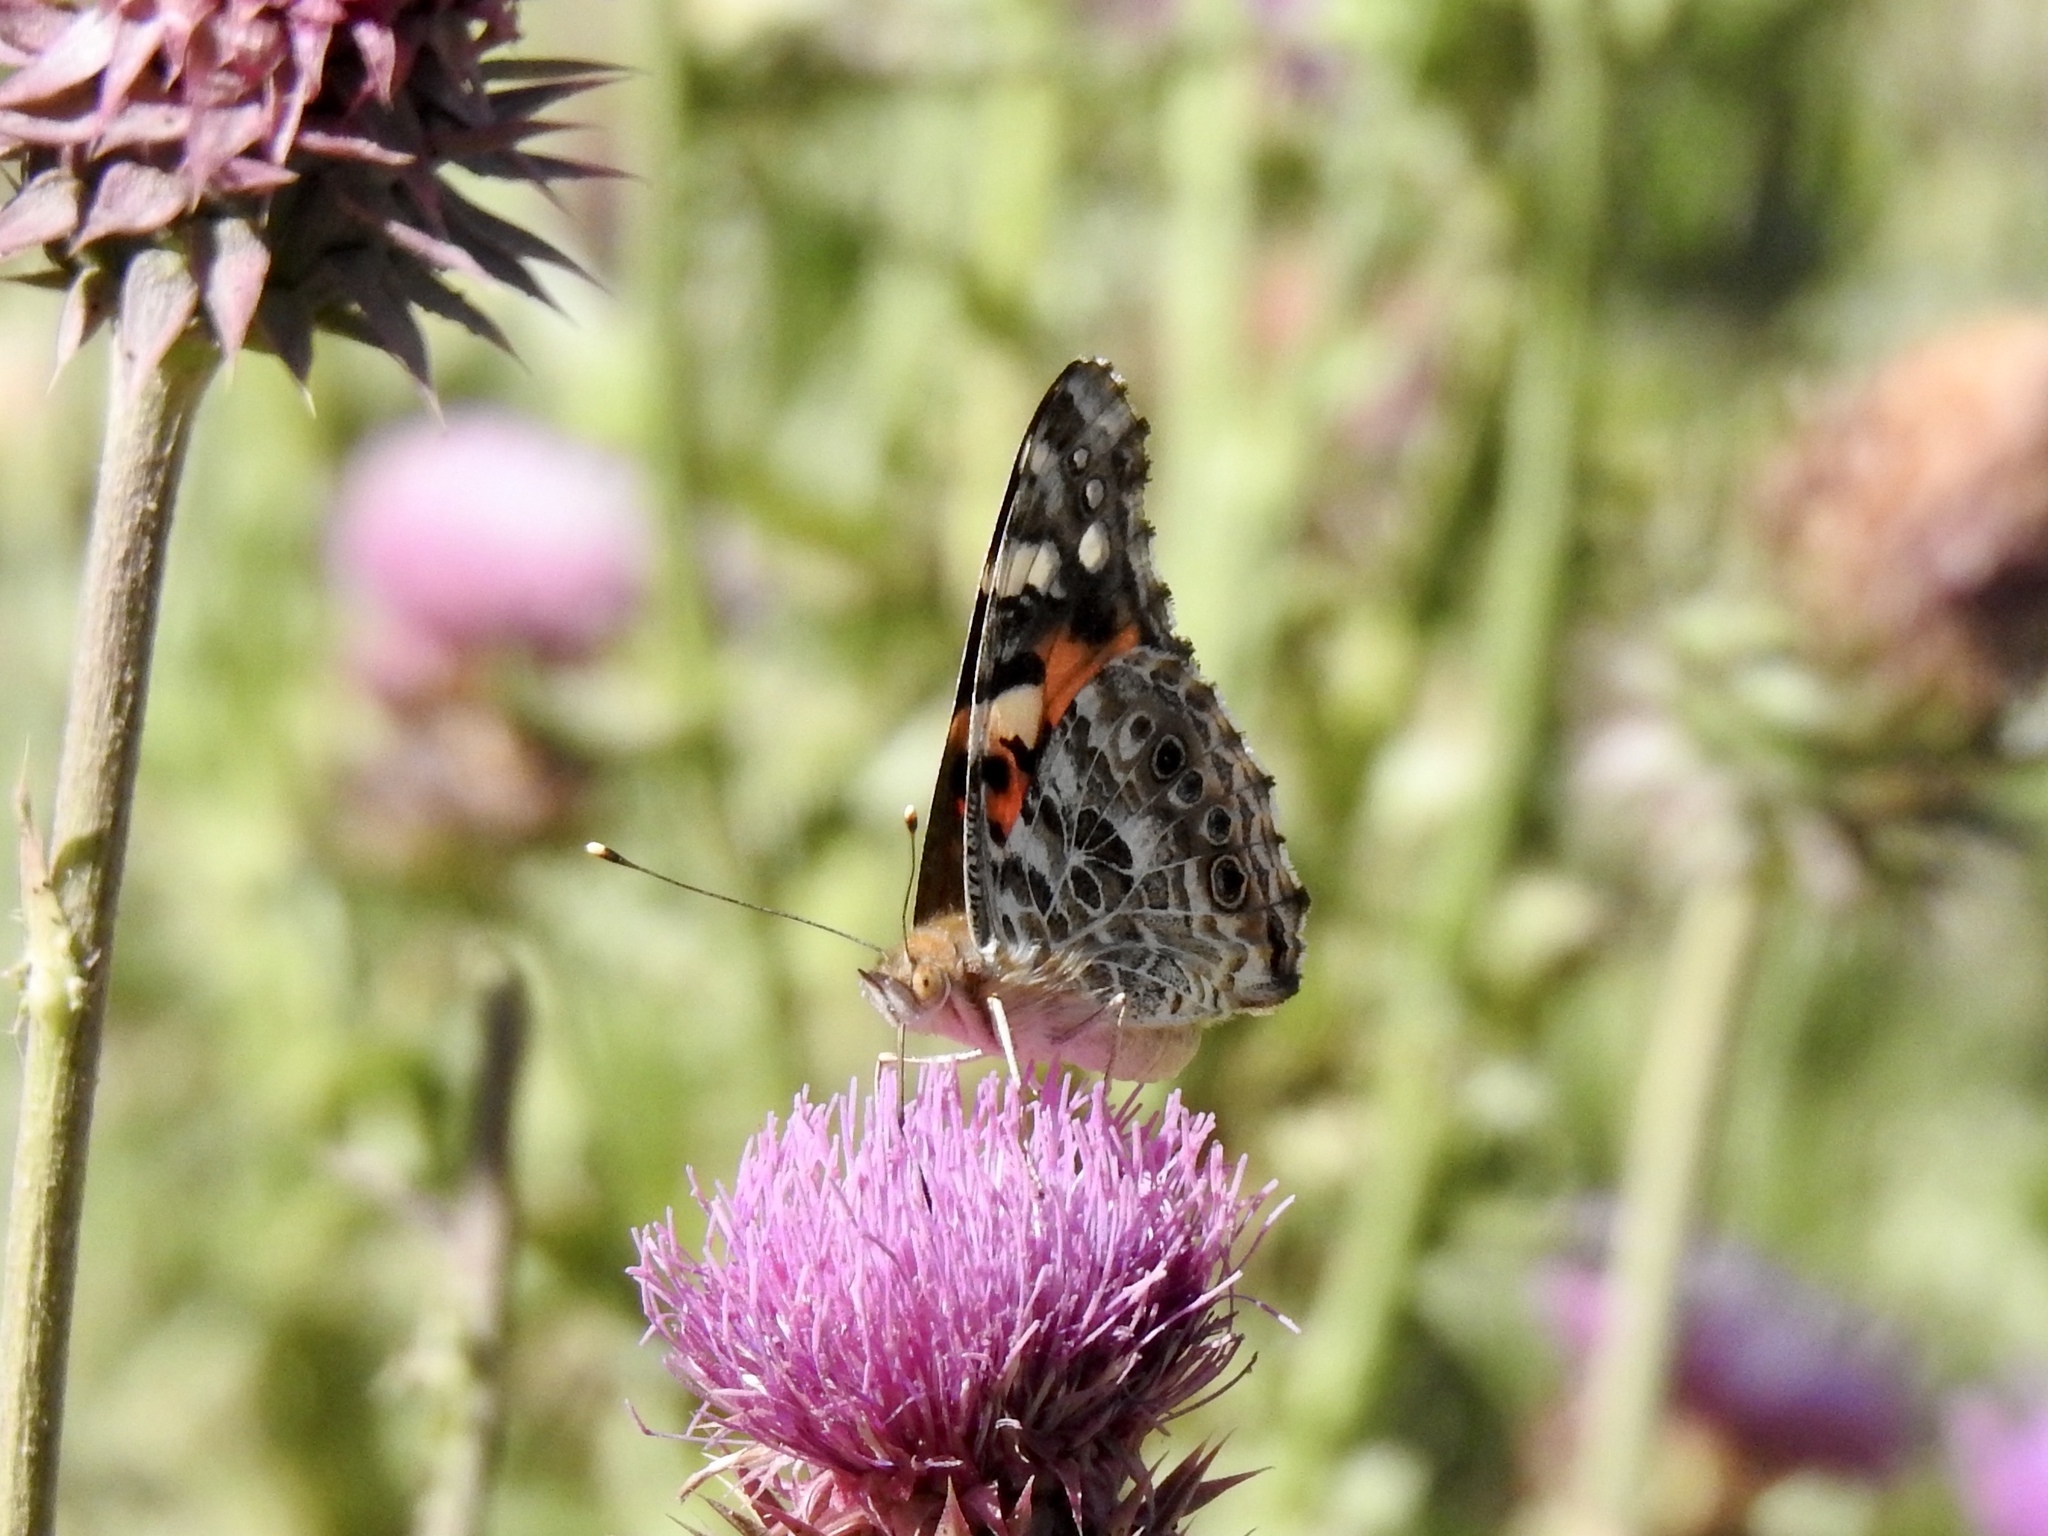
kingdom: Animalia
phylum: Arthropoda
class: Insecta
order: Lepidoptera
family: Nymphalidae
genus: Vanessa
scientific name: Vanessa cardui
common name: Painted lady
